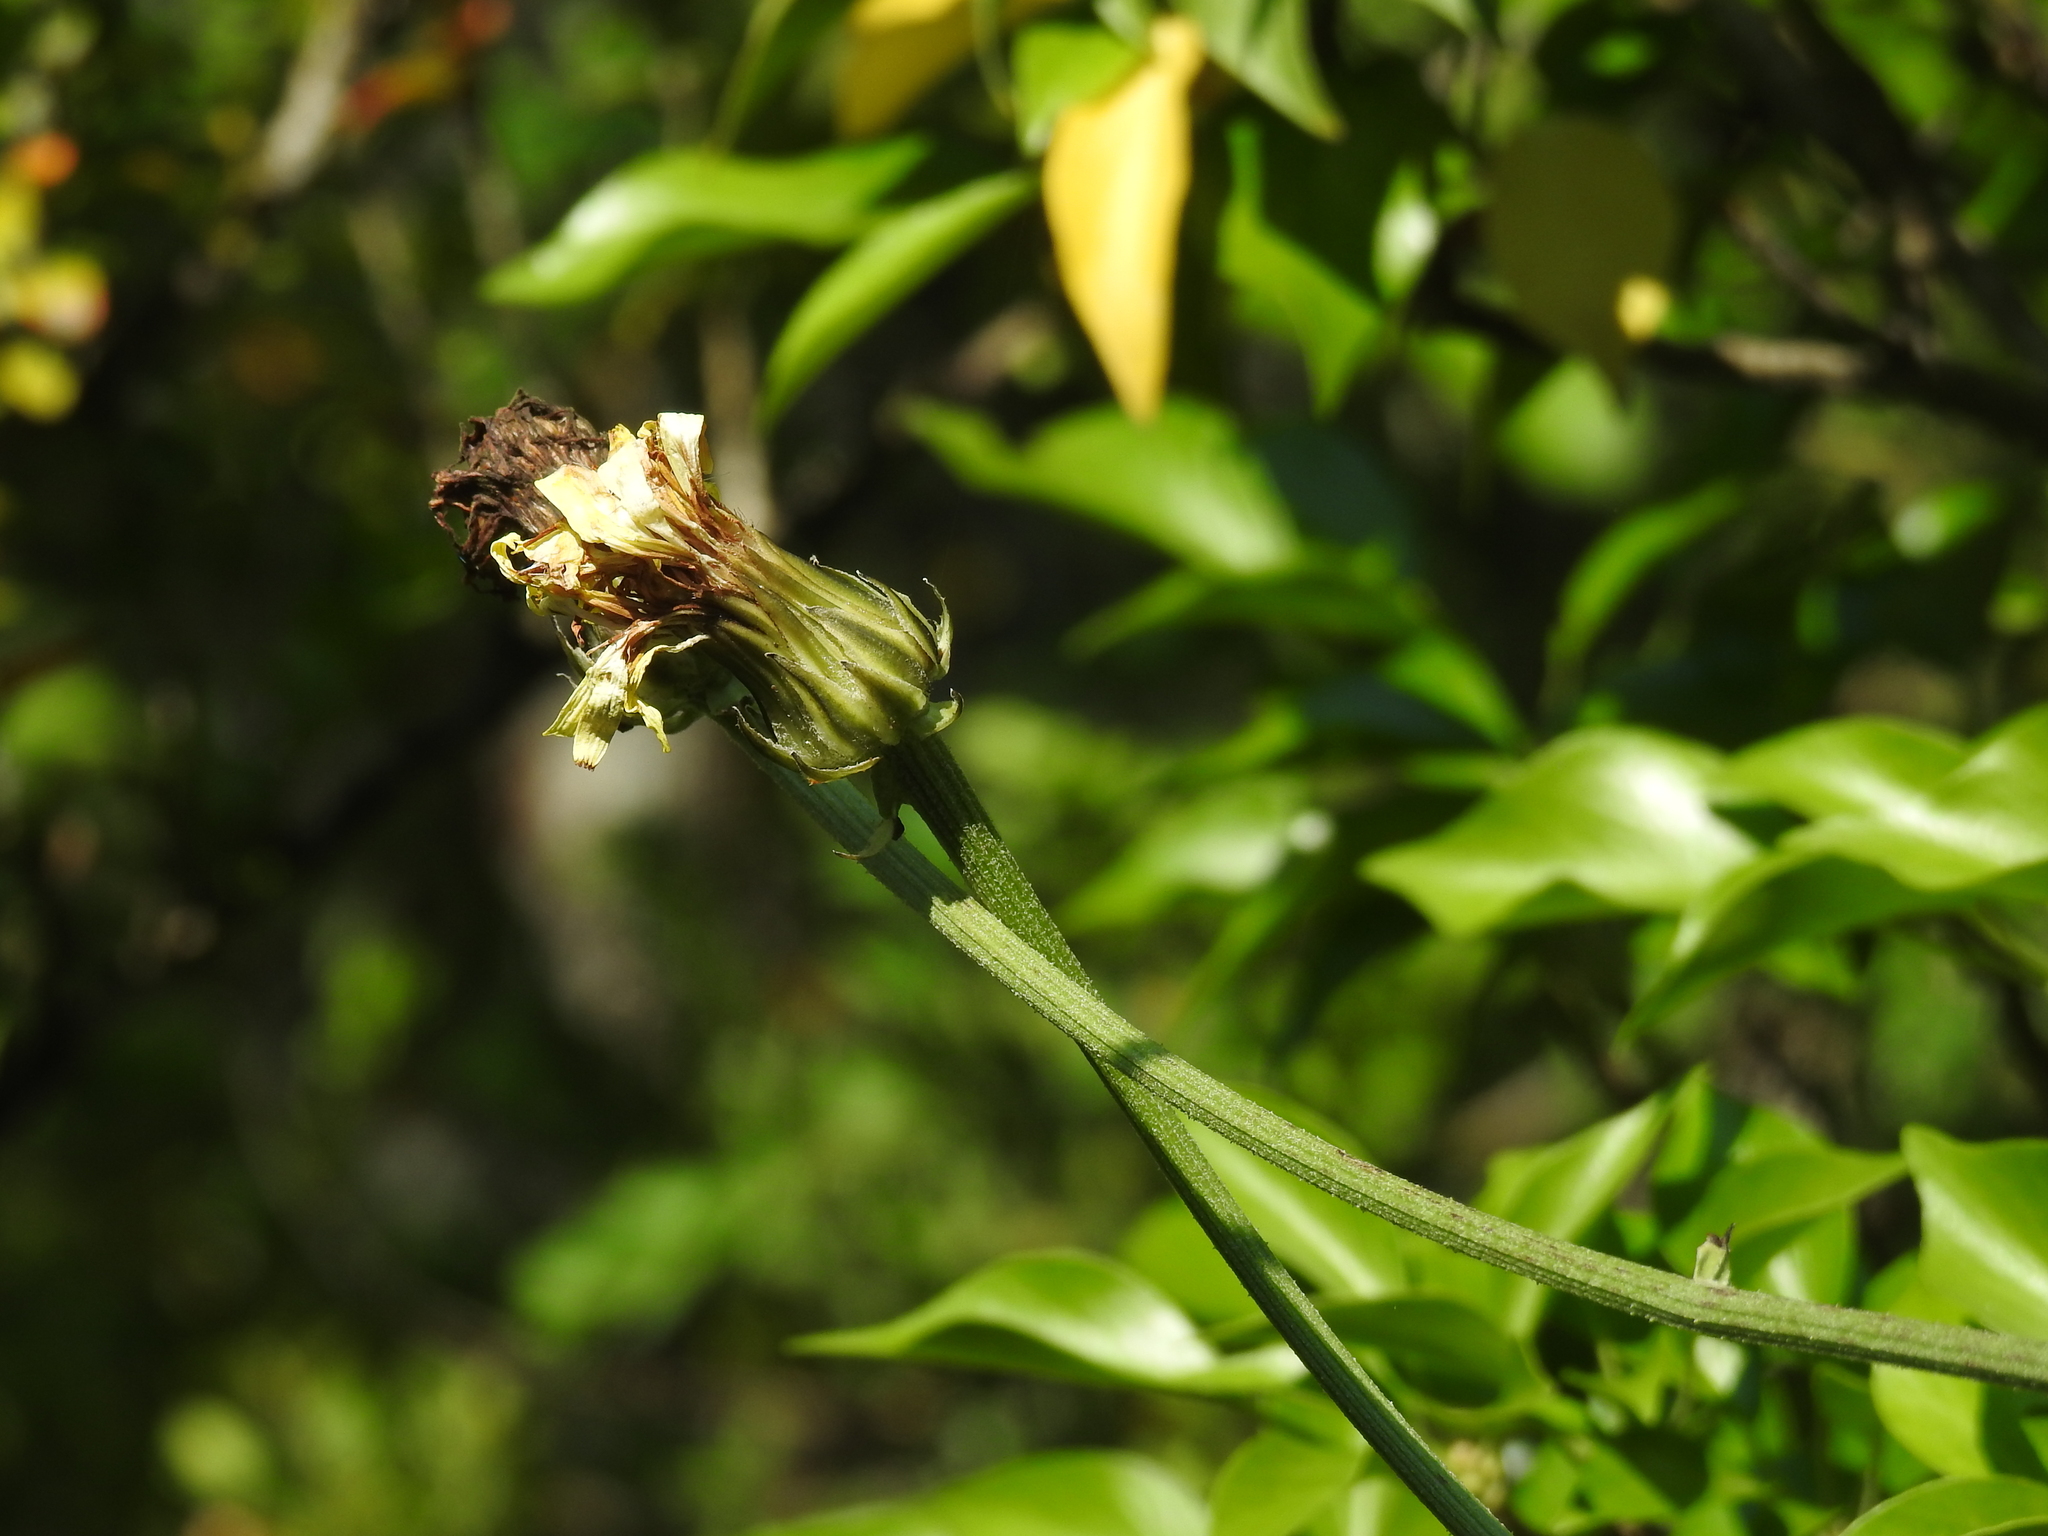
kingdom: Plantae
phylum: Tracheophyta
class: Magnoliopsida
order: Asterales
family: Asteraceae
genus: Crepis
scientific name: Crepis albida
